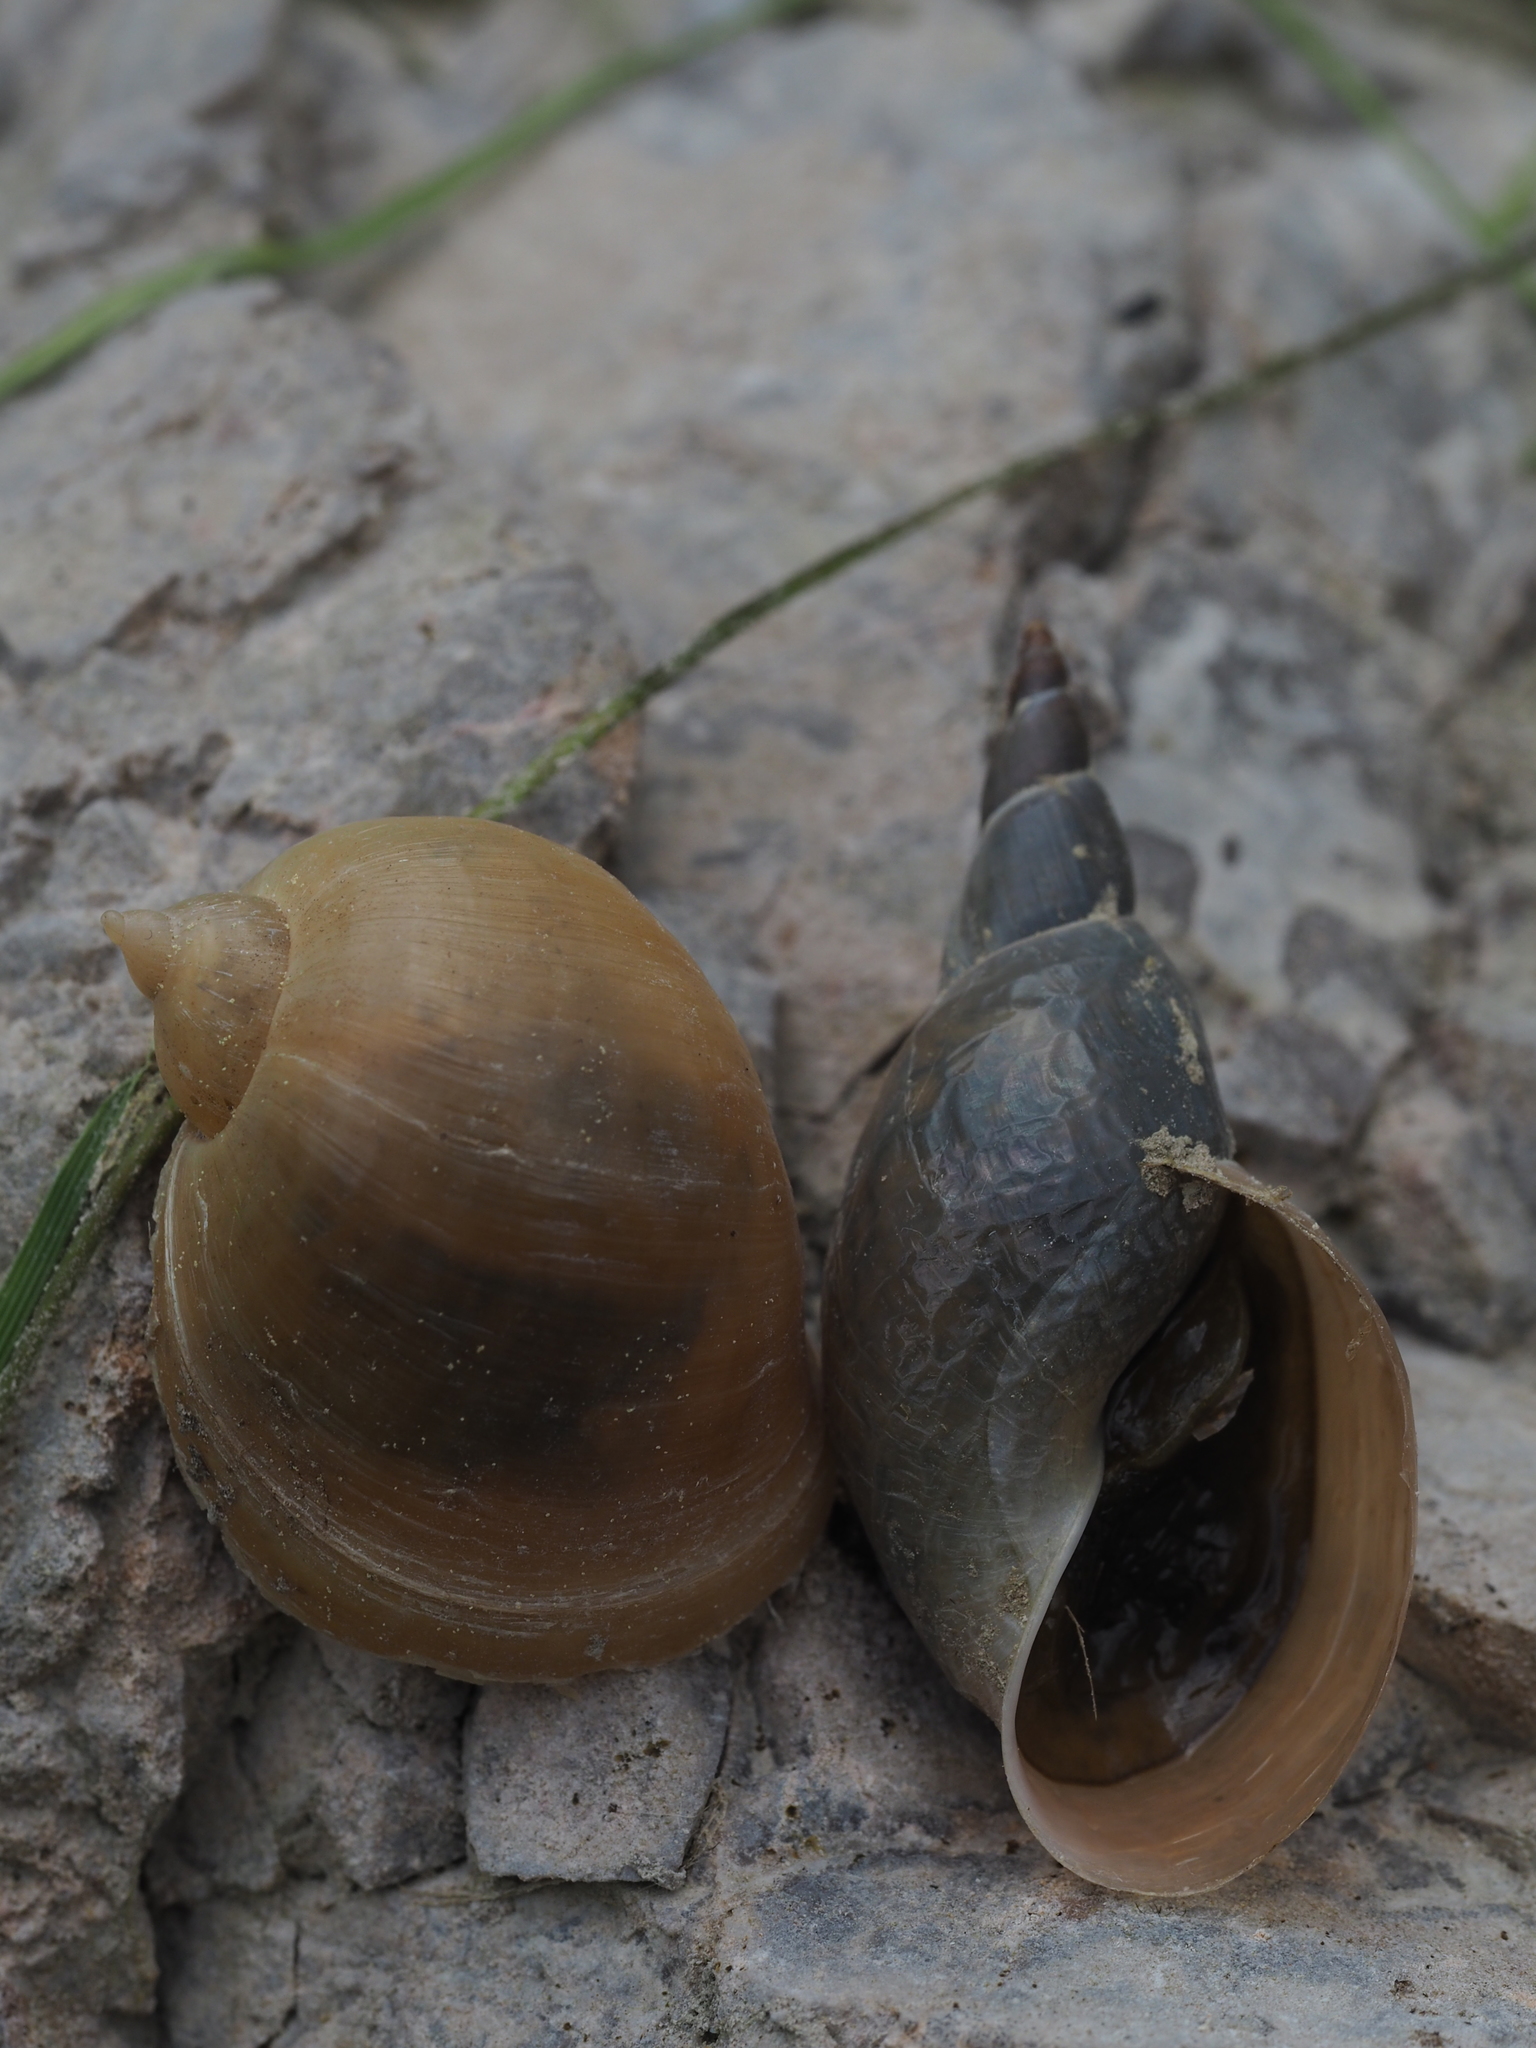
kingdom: Animalia
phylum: Mollusca
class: Gastropoda
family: Lymnaeidae
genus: Lymnaea
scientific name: Lymnaea stagnalis
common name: Great pond snail
